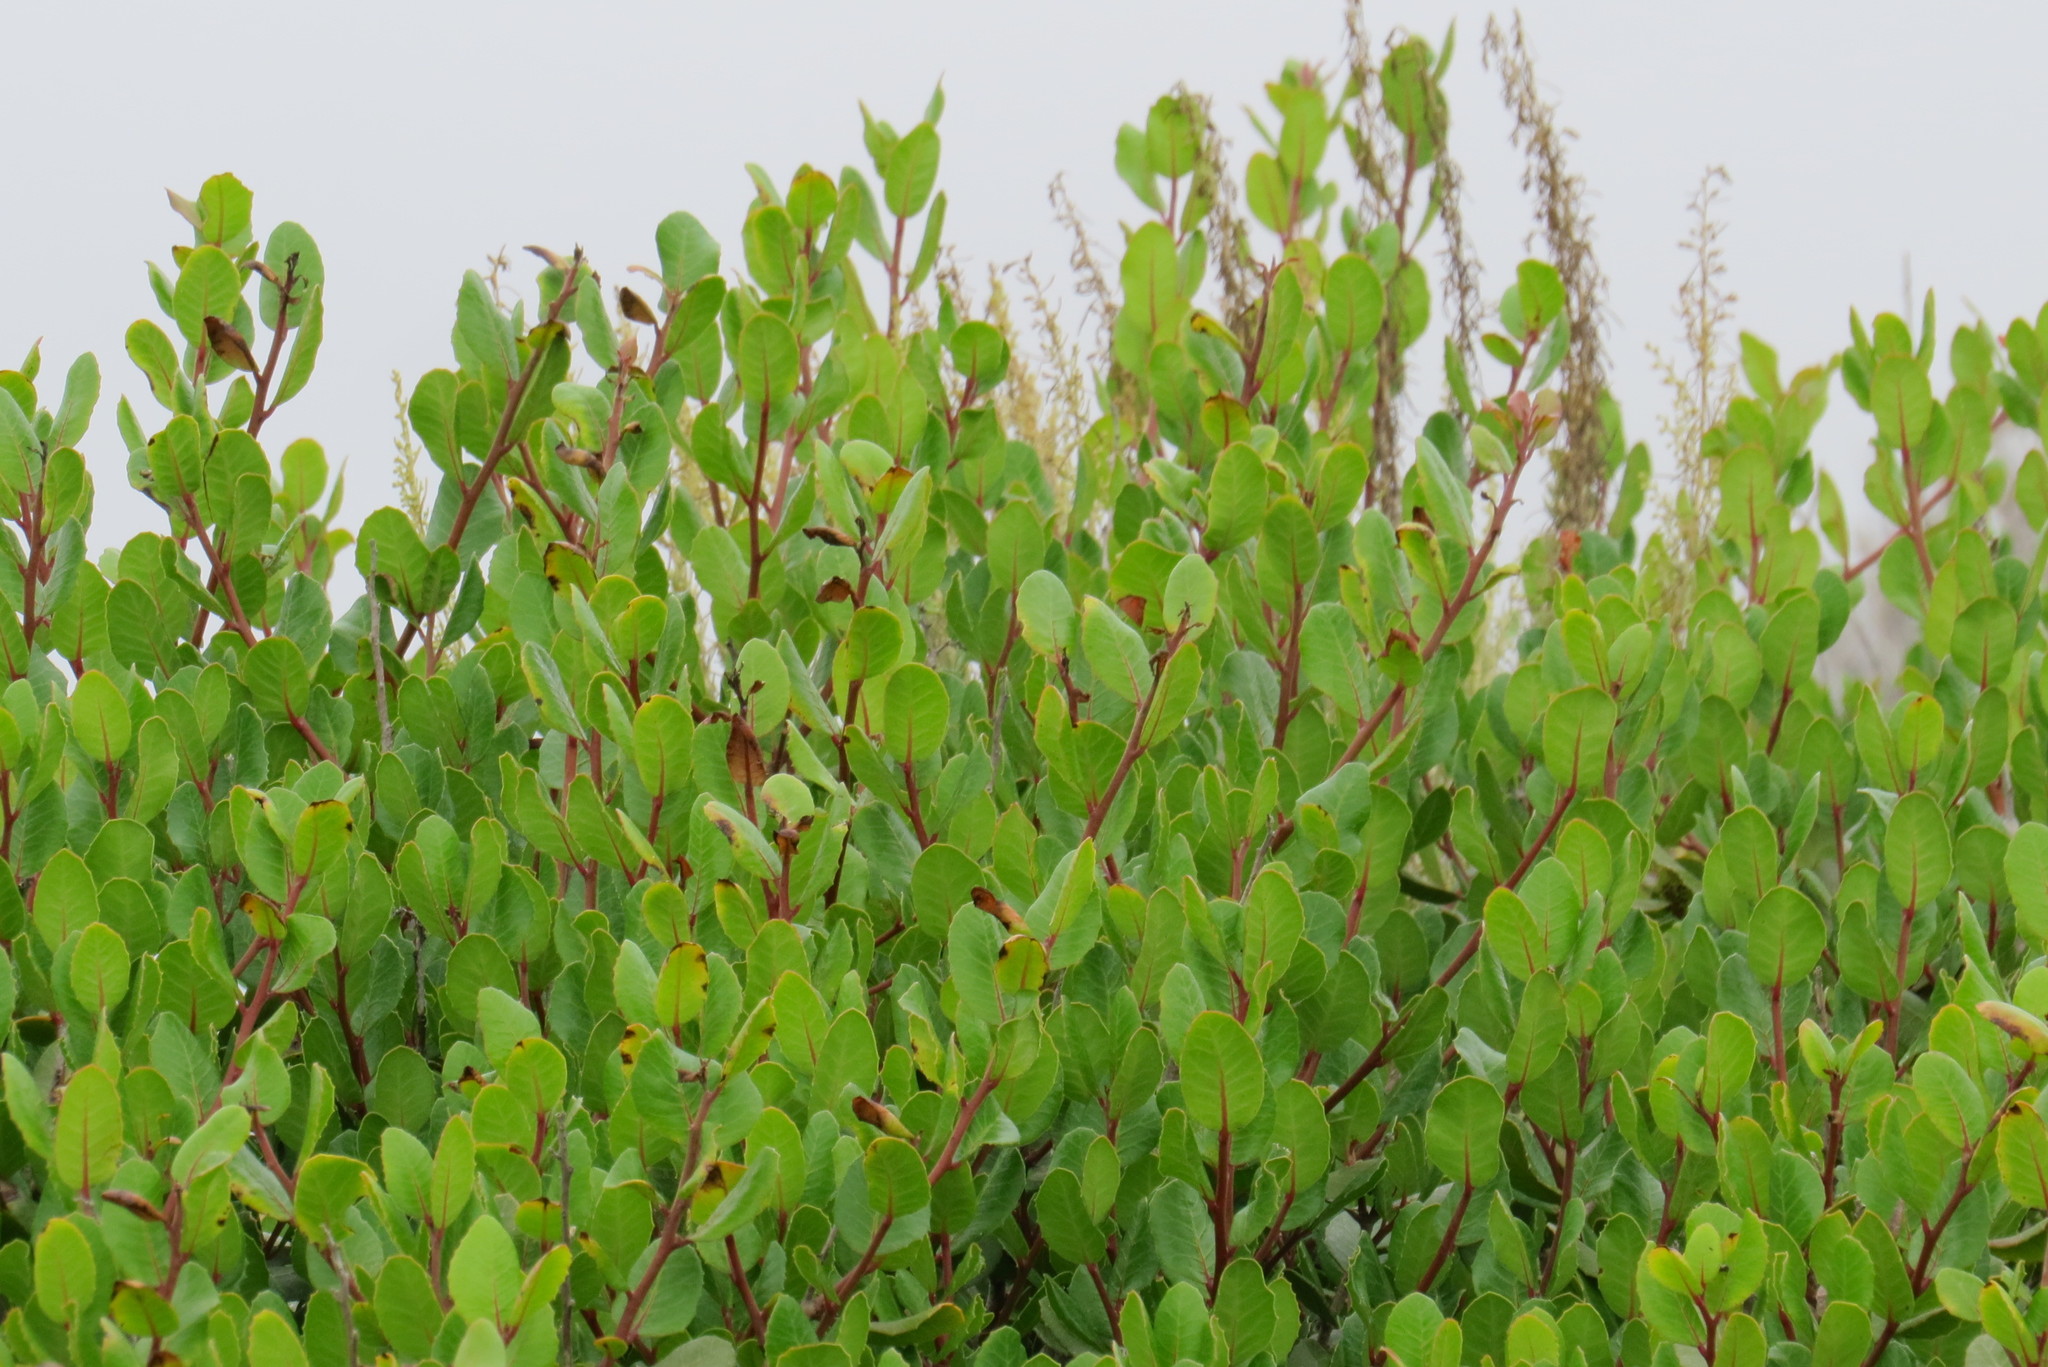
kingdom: Plantae
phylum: Tracheophyta
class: Magnoliopsida
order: Sapindales
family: Anacardiaceae
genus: Rhus
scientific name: Rhus integrifolia
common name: Lemonade sumac
